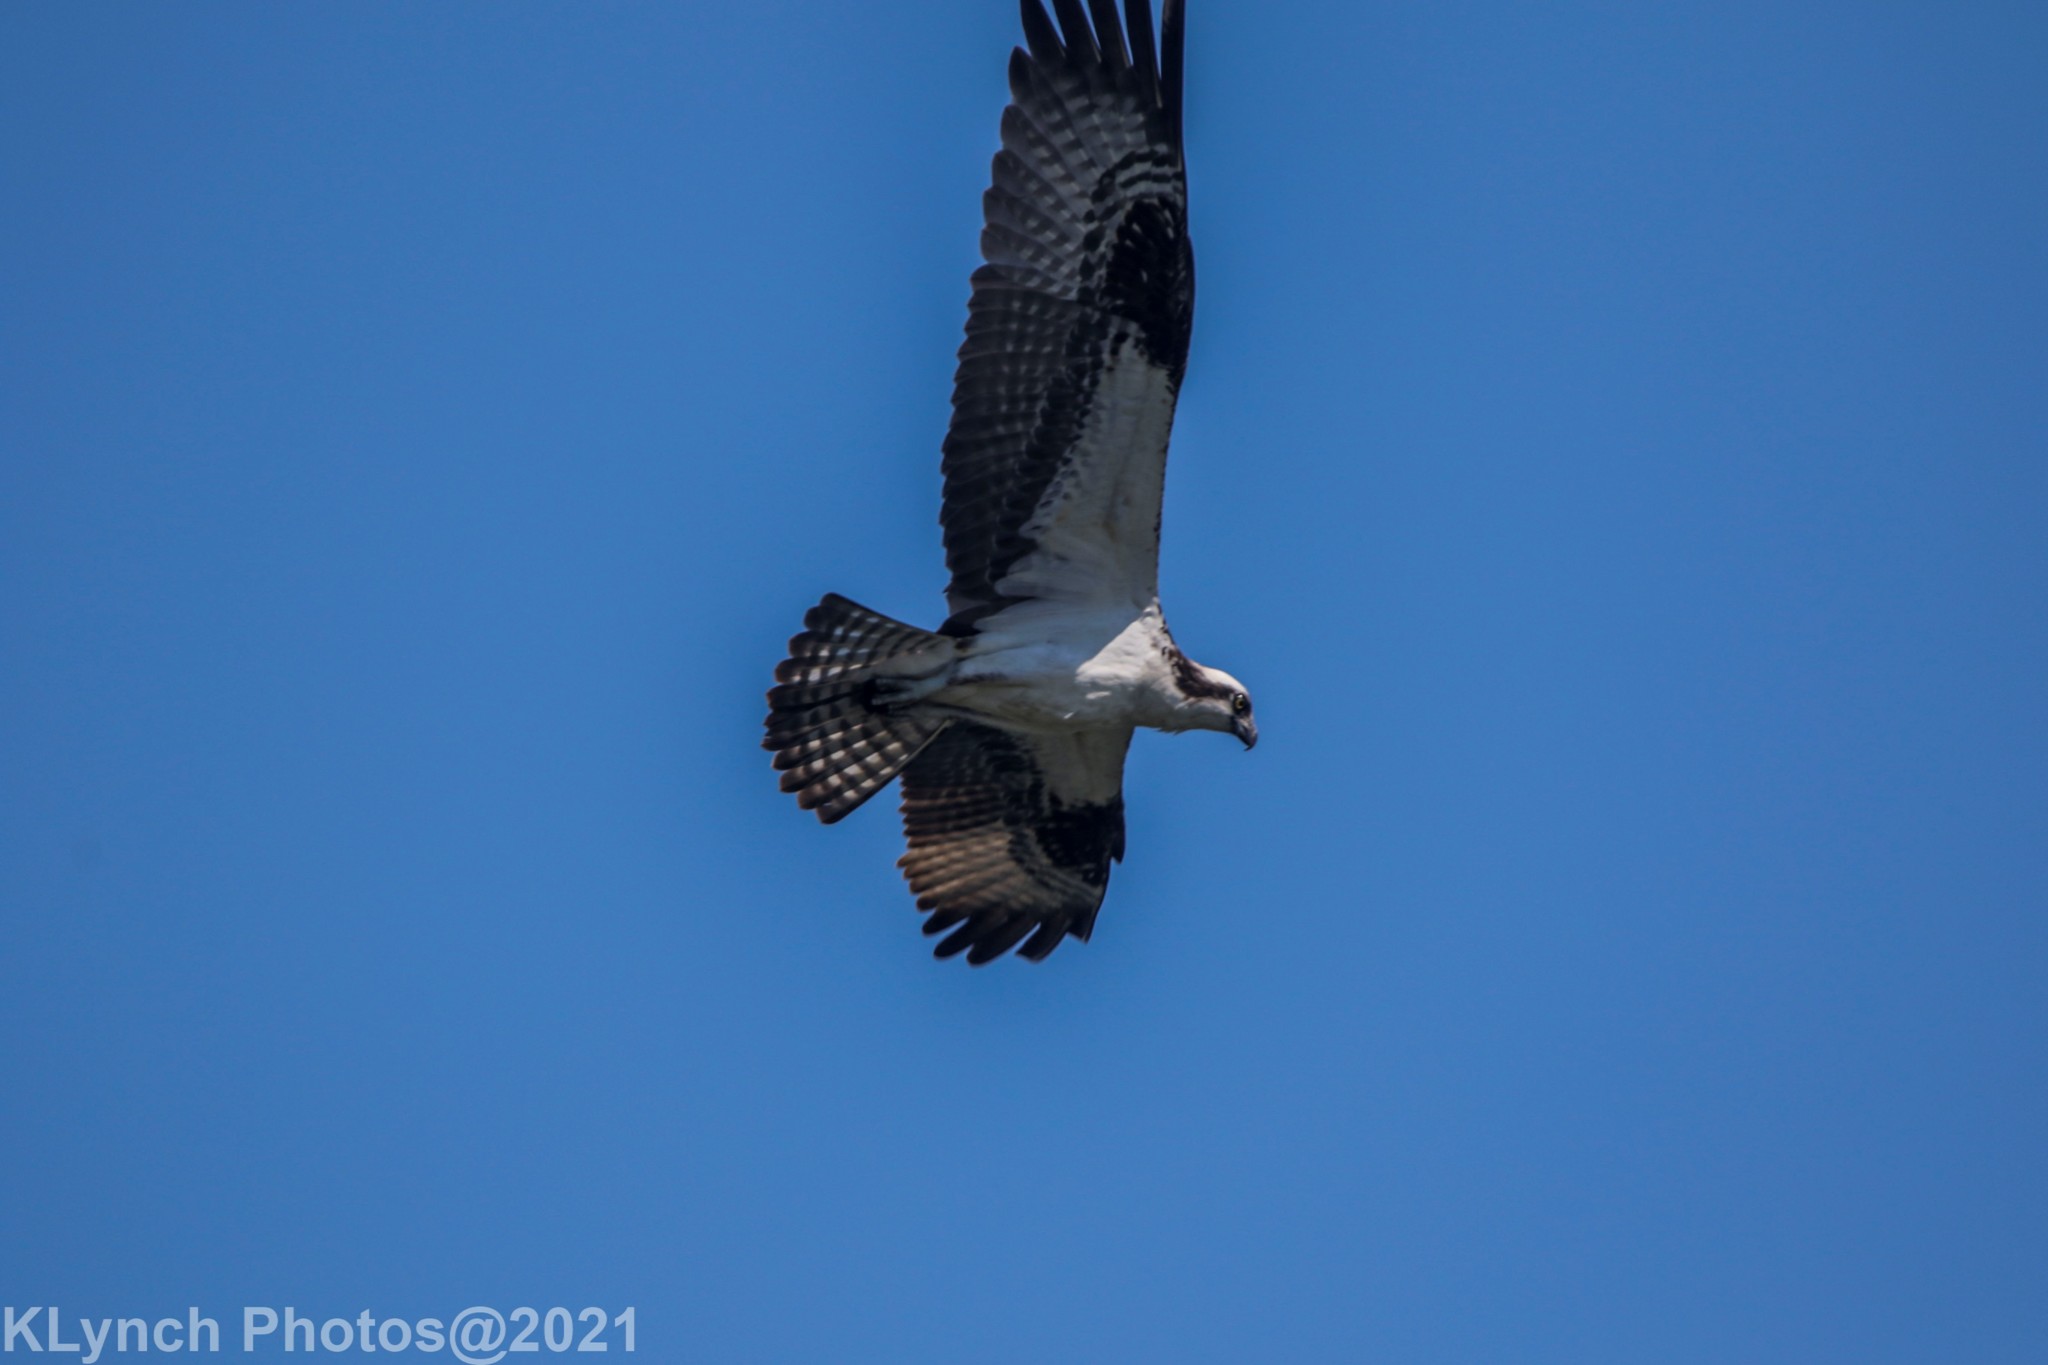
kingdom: Animalia
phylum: Chordata
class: Aves
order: Accipitriformes
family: Pandionidae
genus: Pandion
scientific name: Pandion haliaetus
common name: Osprey
